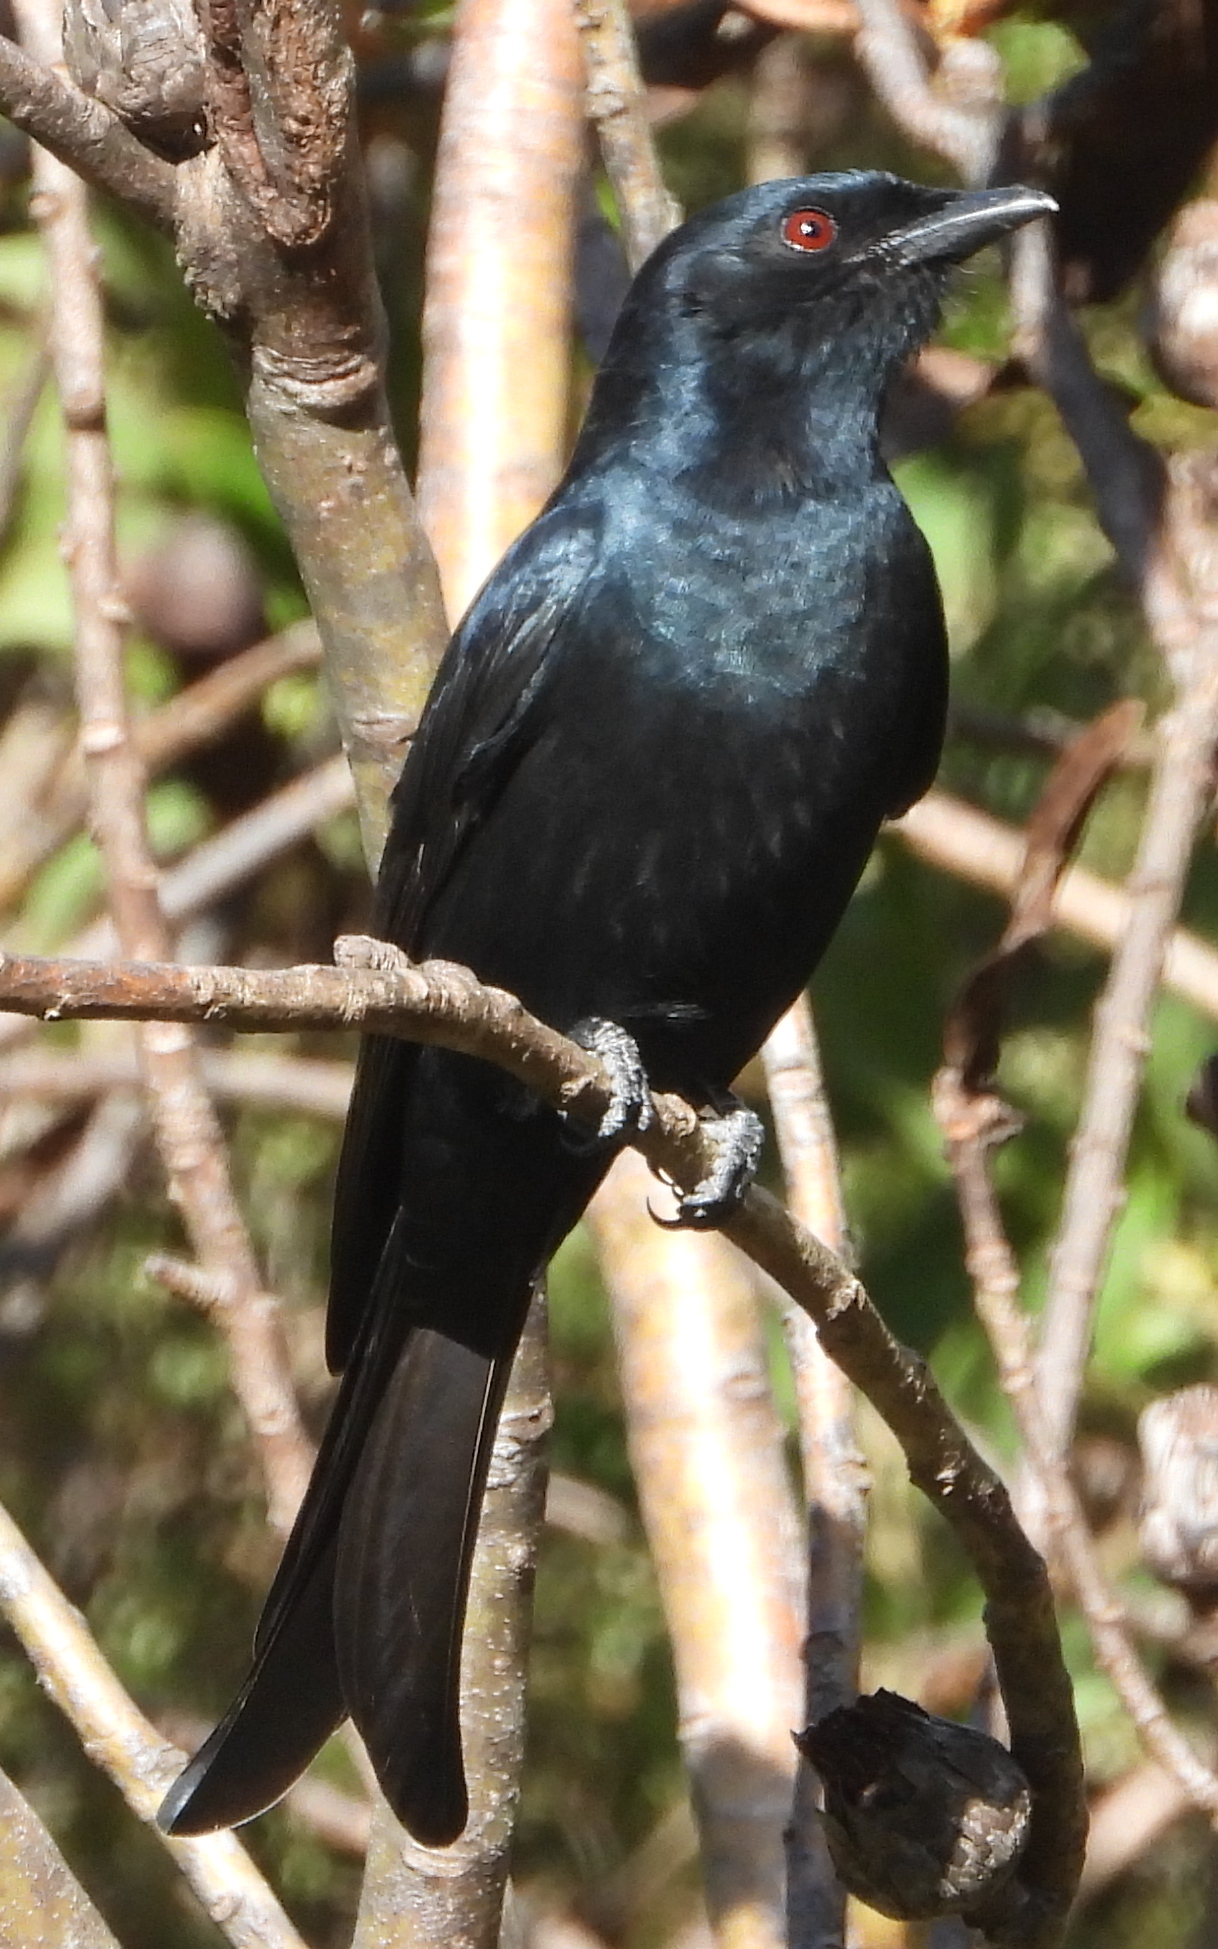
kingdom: Animalia
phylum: Chordata
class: Aves
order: Passeriformes
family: Dicruridae
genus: Dicrurus
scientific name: Dicrurus adsimilis
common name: Fork-tailed drongo
